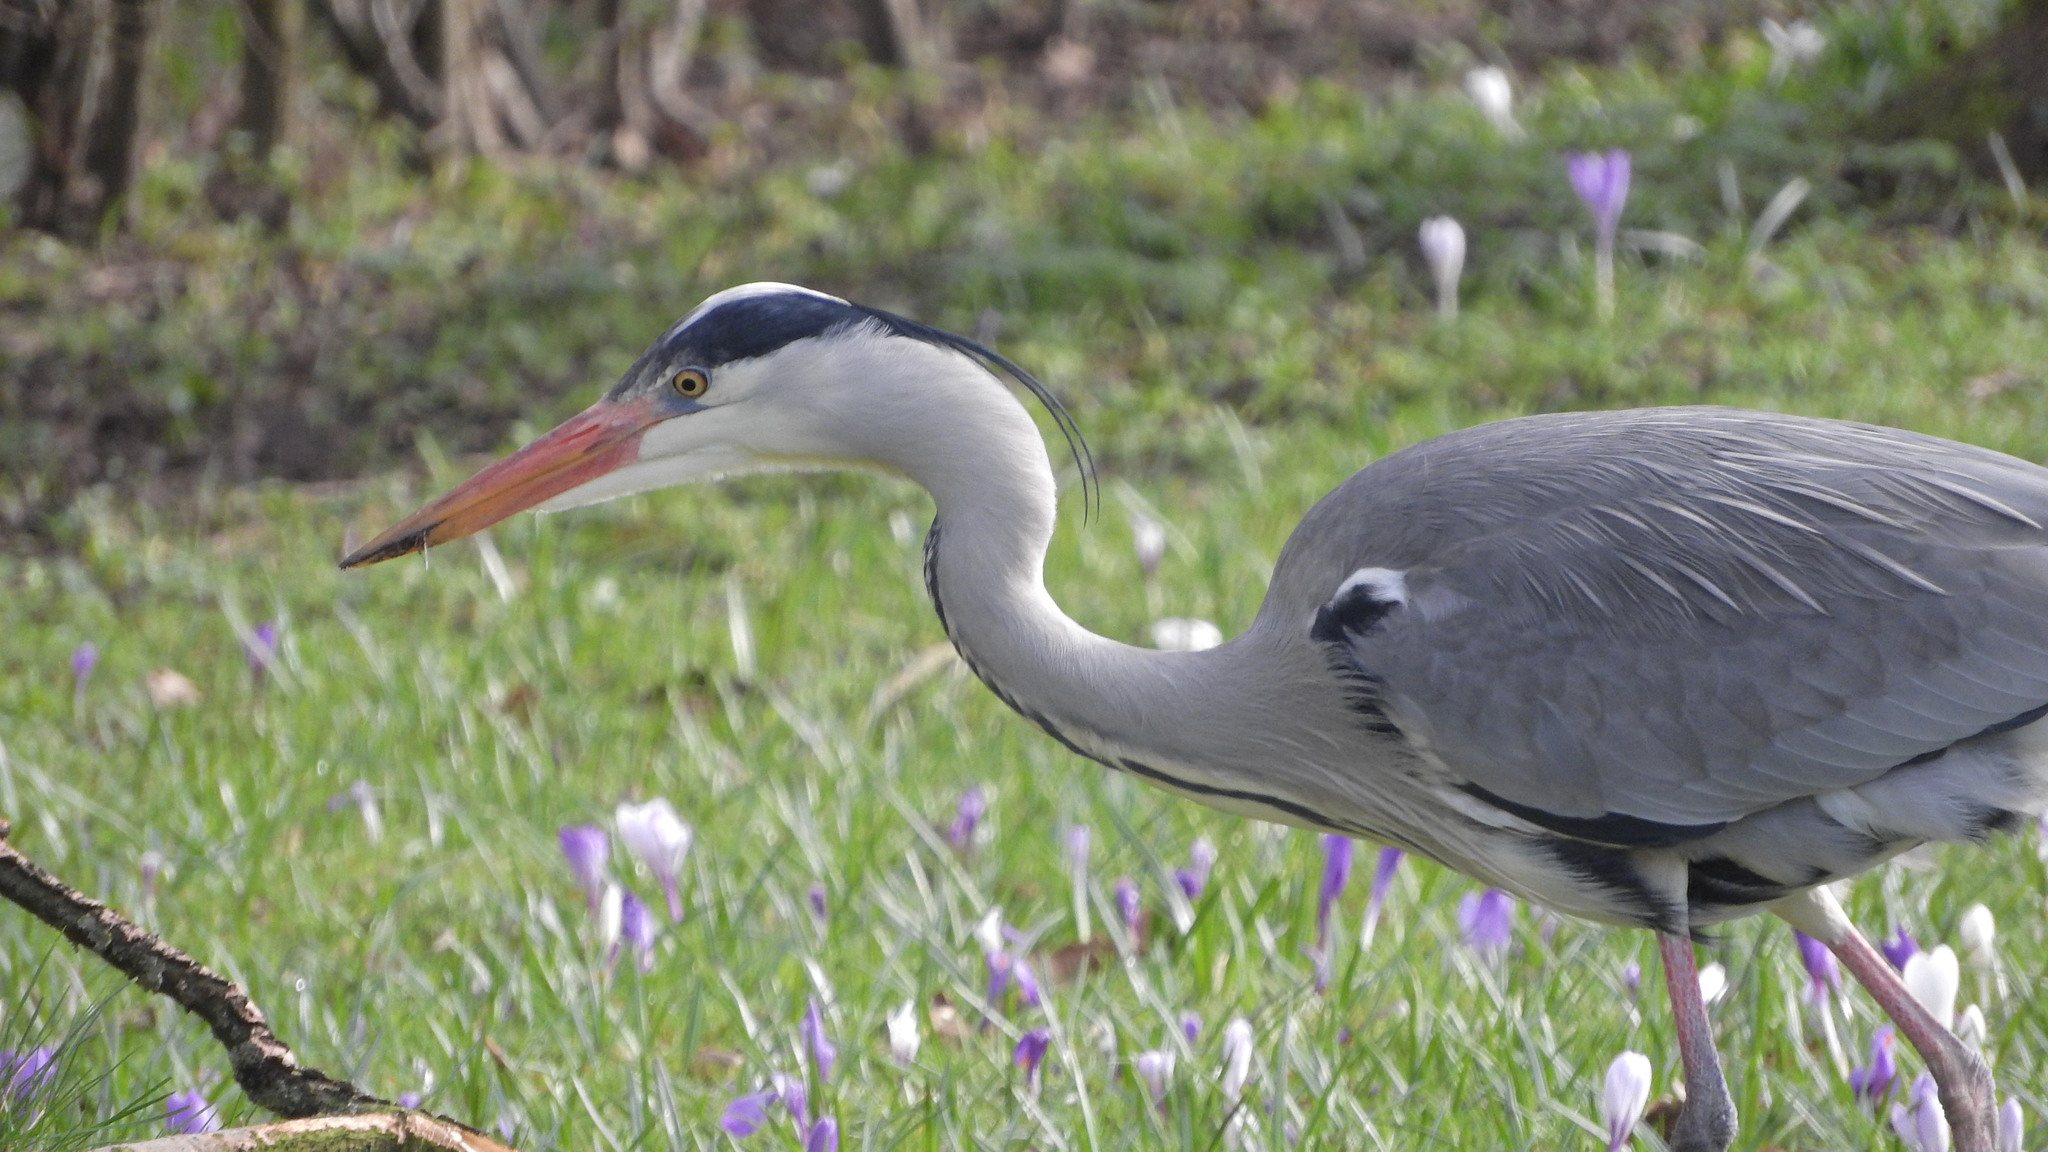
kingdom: Animalia
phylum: Chordata
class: Aves
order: Pelecaniformes
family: Ardeidae
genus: Ardea
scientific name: Ardea cinerea
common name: Grey heron
